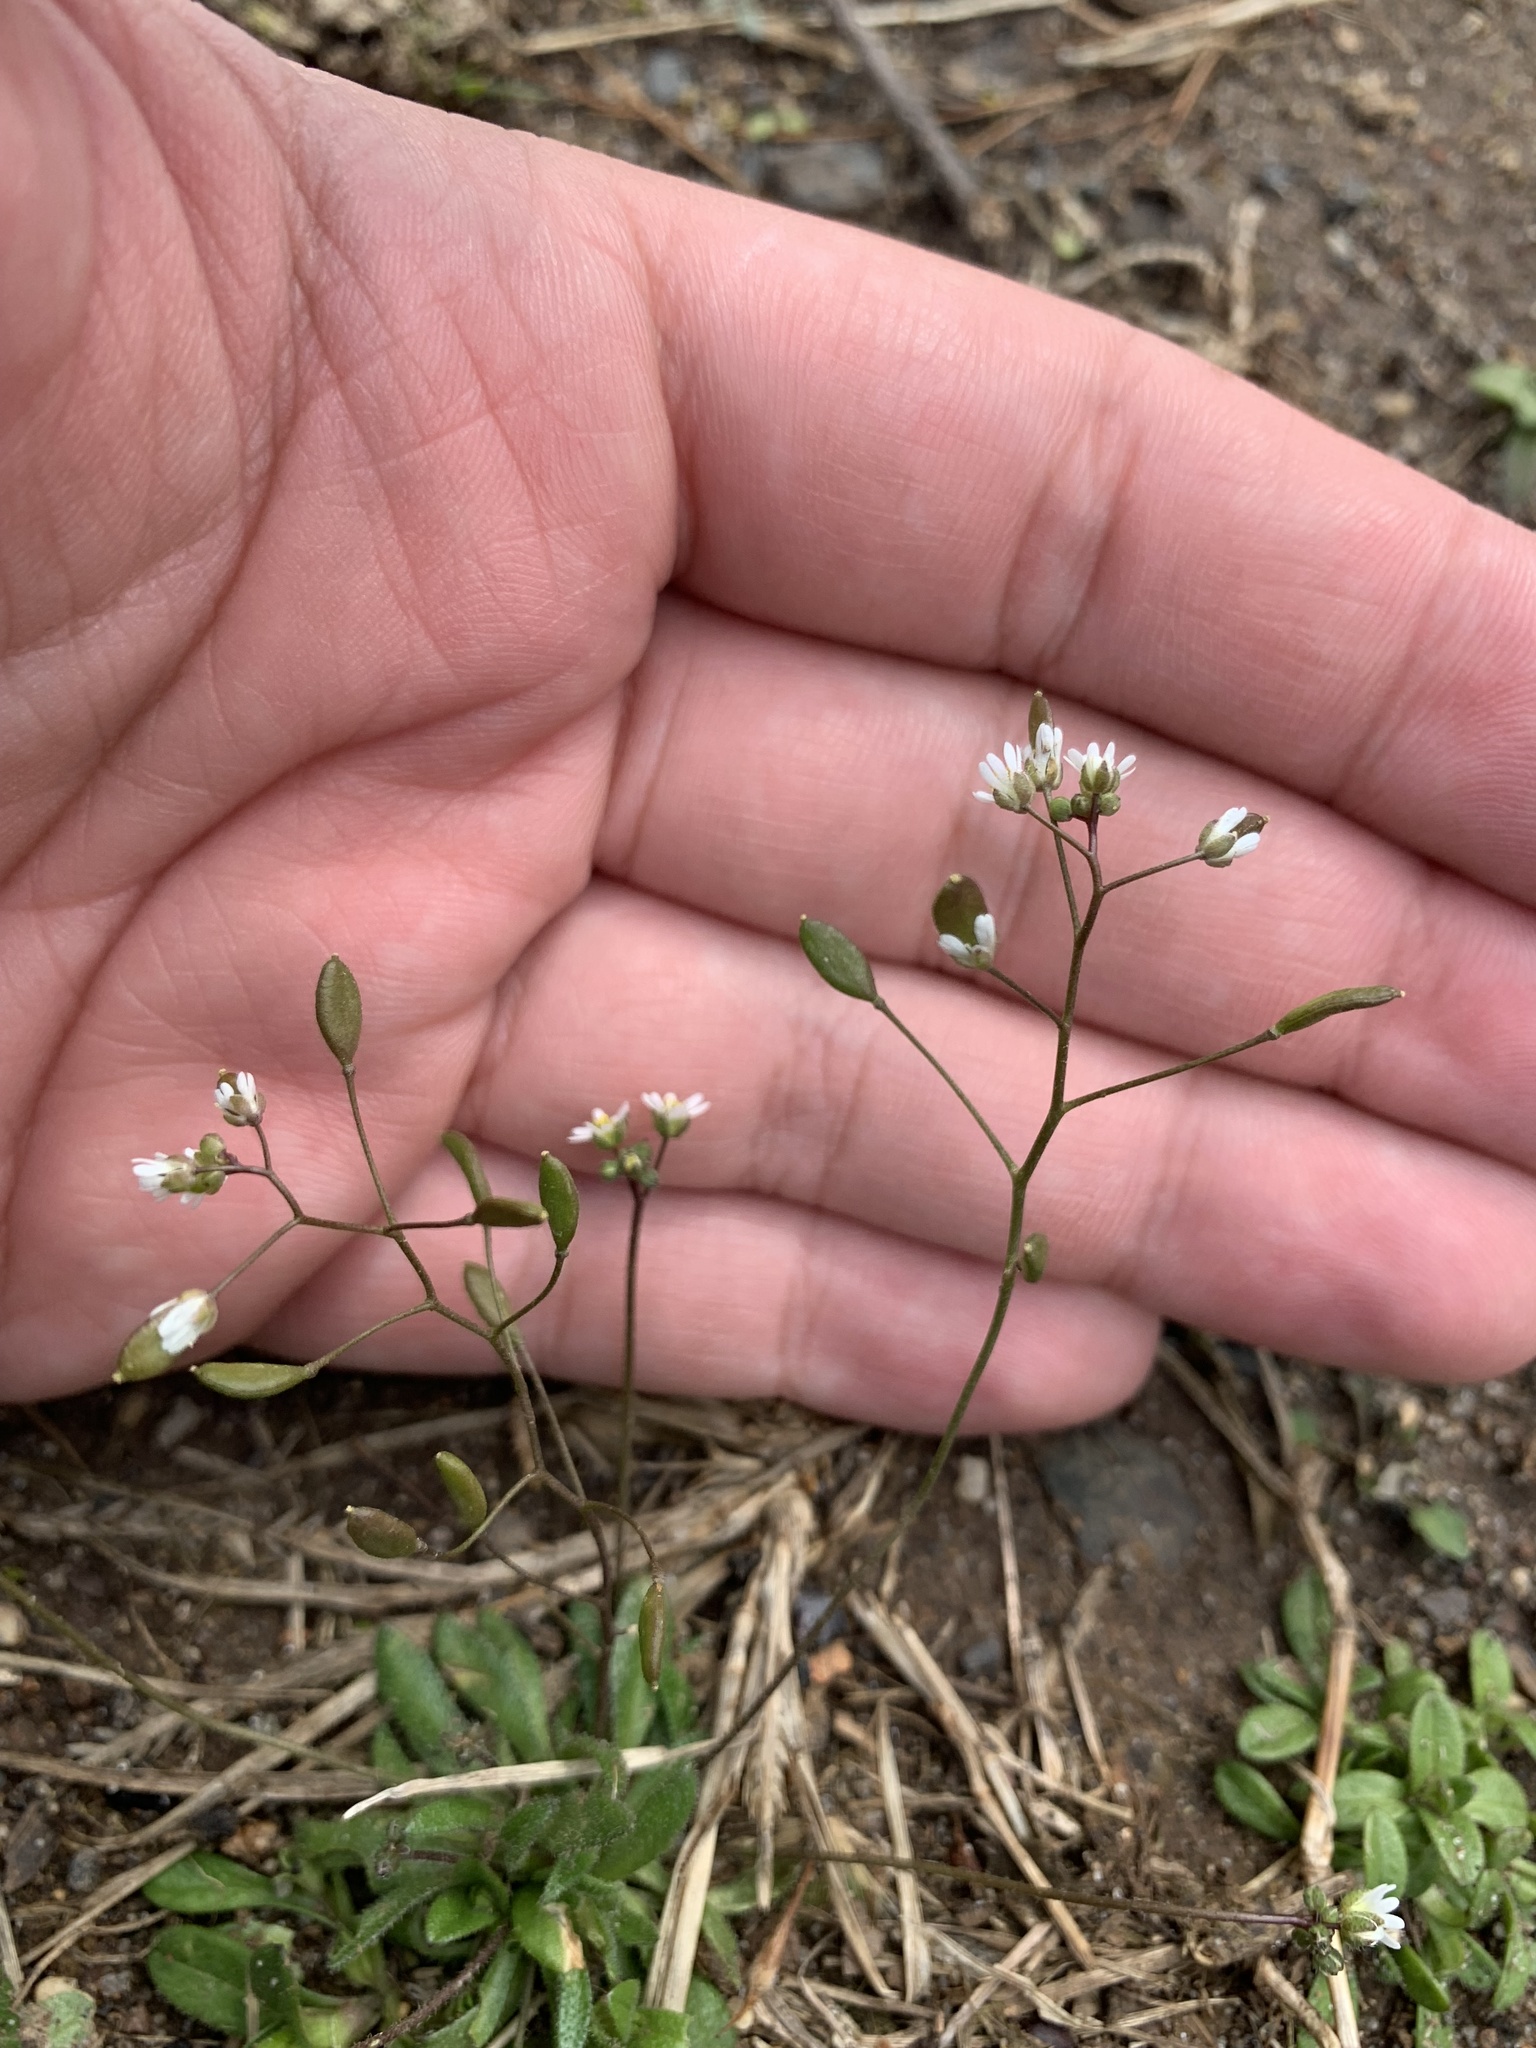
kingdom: Plantae
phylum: Tracheophyta
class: Magnoliopsida
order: Brassicales
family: Brassicaceae
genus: Draba
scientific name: Draba verna
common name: Spring draba
